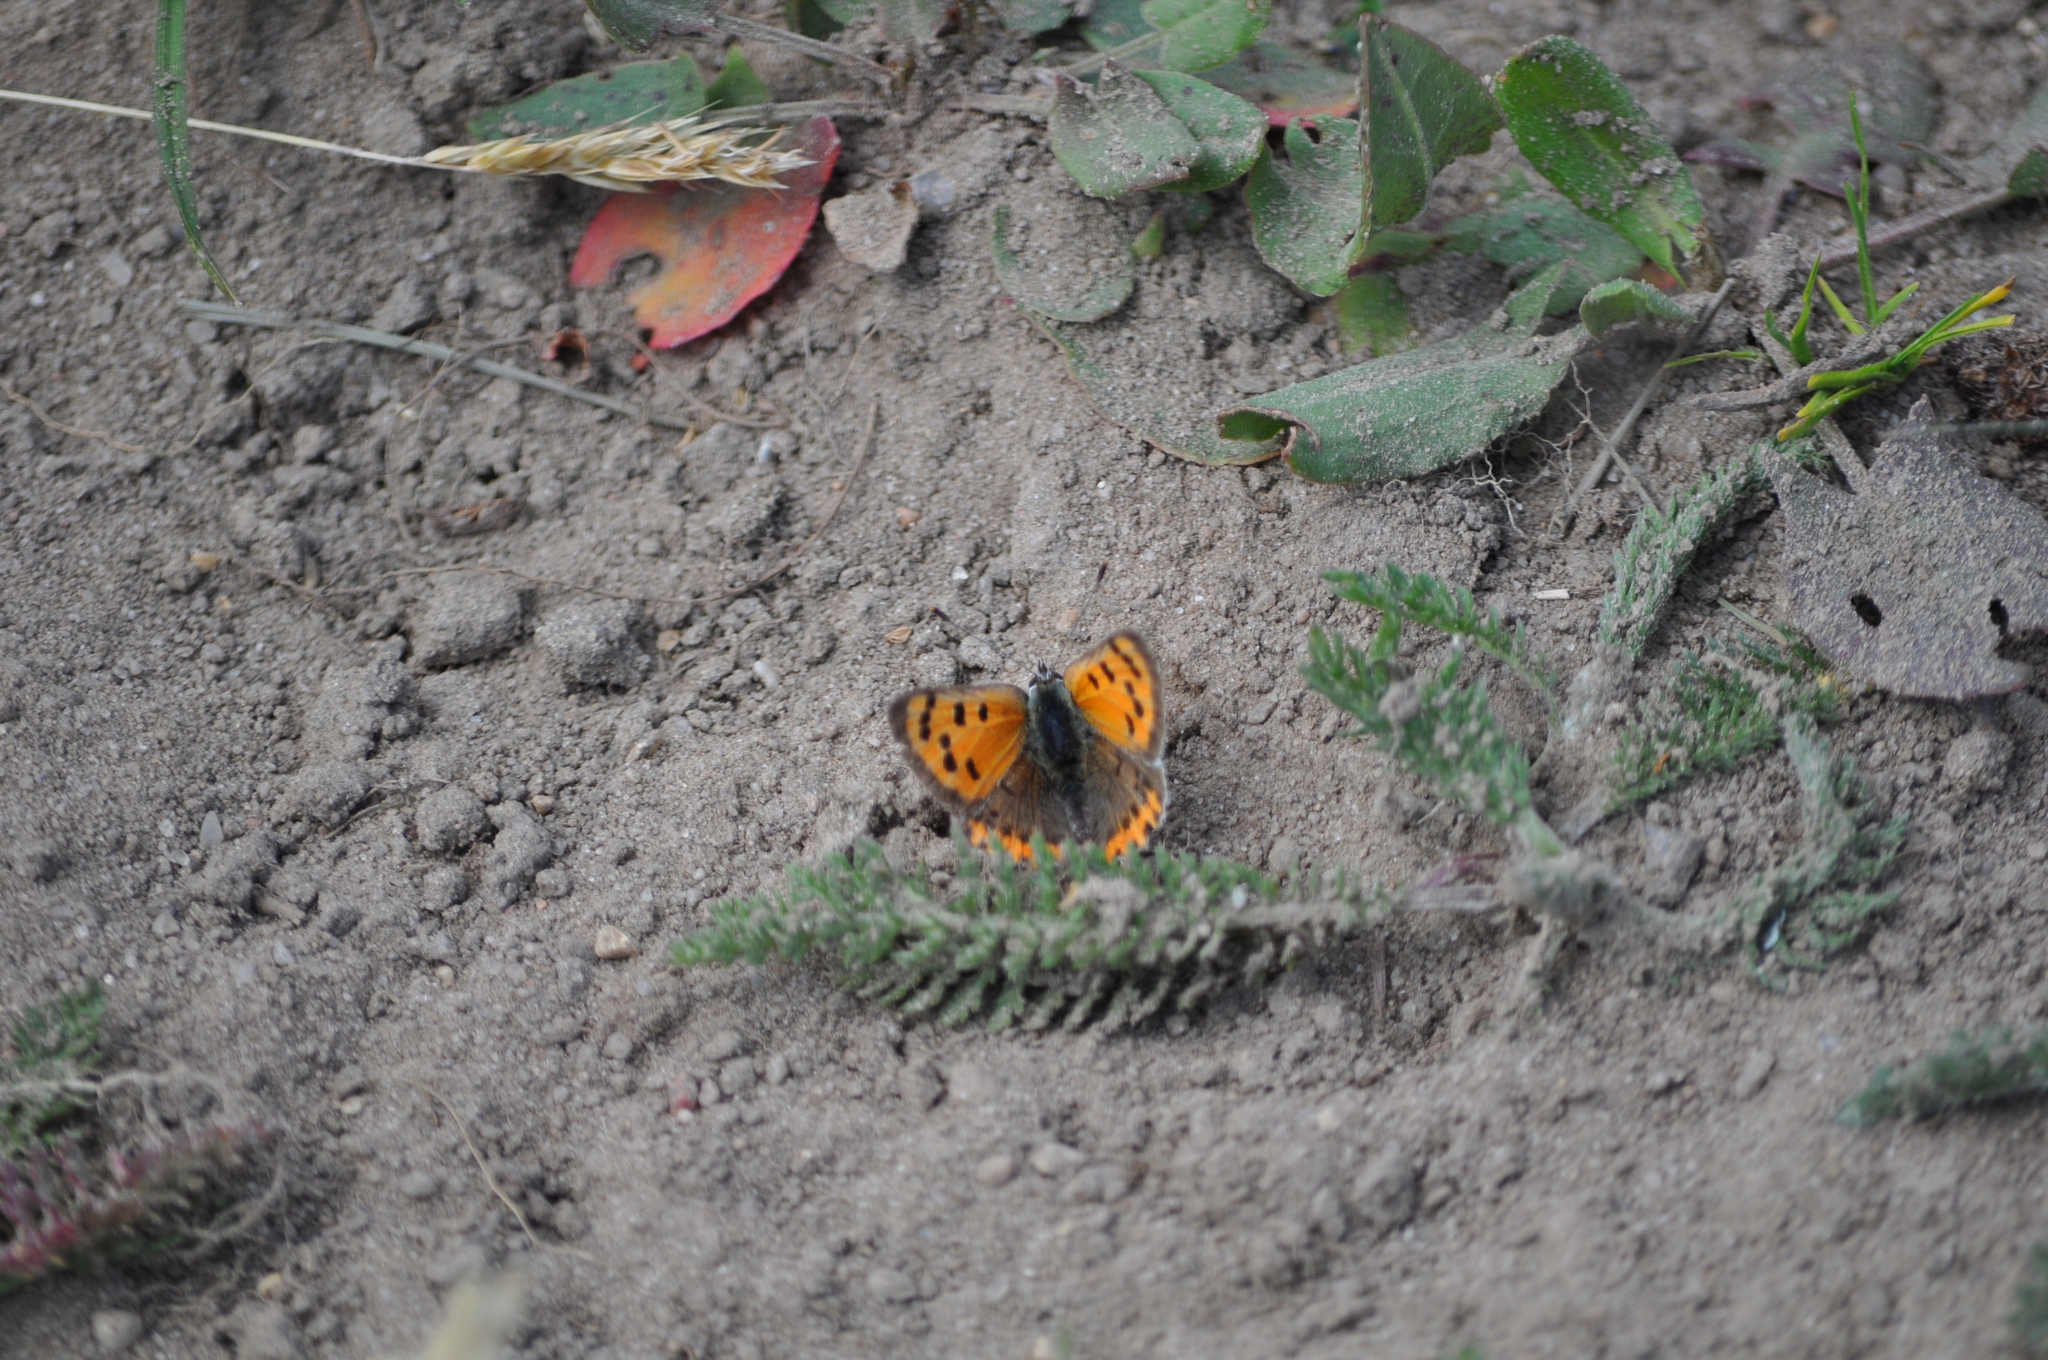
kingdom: Animalia
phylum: Arthropoda
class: Insecta
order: Lepidoptera
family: Lycaenidae
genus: Lycaena
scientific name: Lycaena phlaeas
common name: Small copper
